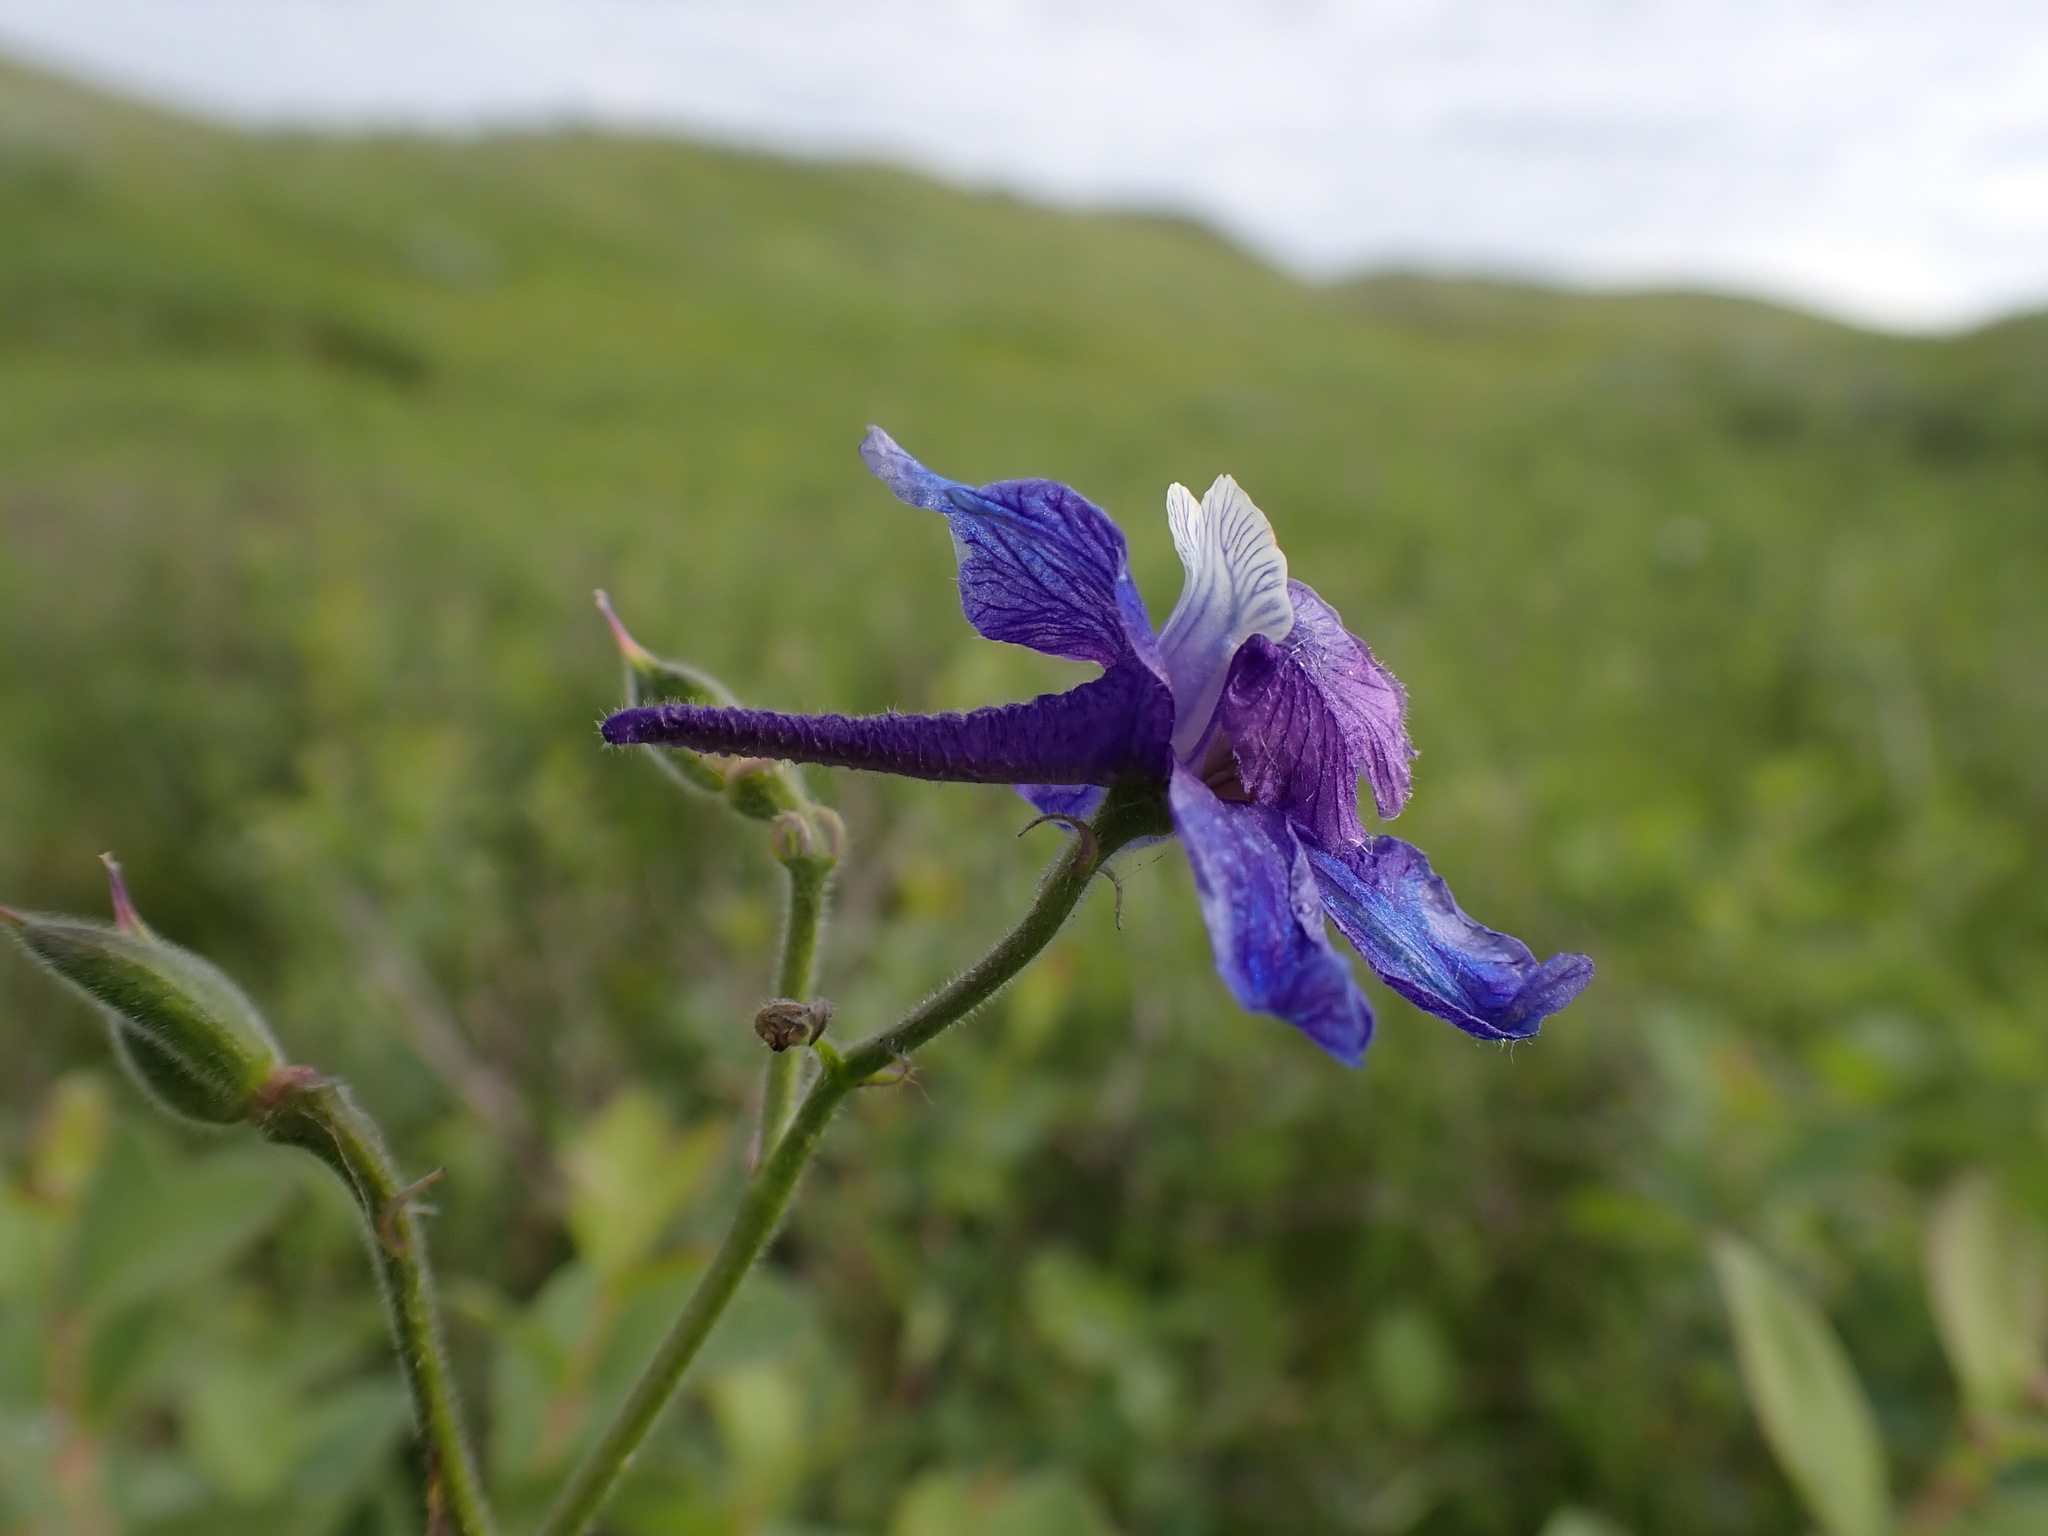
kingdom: Plantae
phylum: Tracheophyta
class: Magnoliopsida
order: Ranunculales
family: Ranunculaceae
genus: Delphinium
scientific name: Delphinium bicolor
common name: Low larkspur
